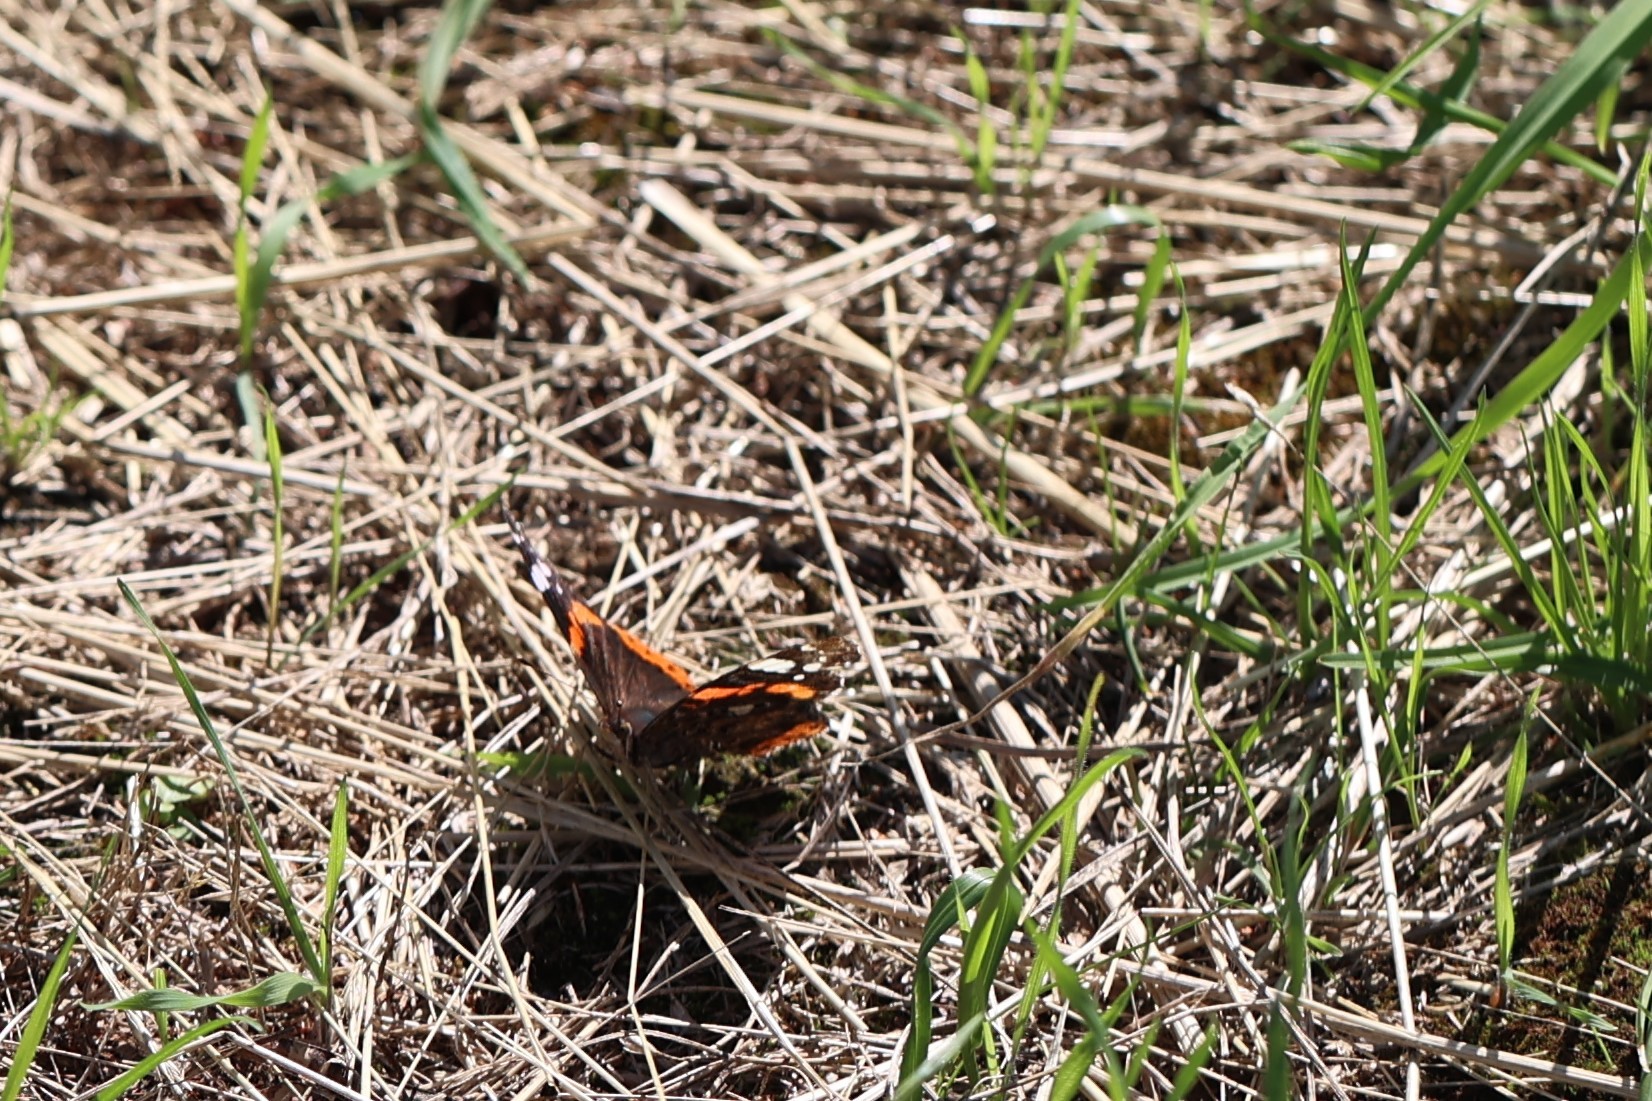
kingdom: Animalia
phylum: Arthropoda
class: Insecta
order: Lepidoptera
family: Nymphalidae
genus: Vanessa
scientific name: Vanessa atalanta
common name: Red admiral
